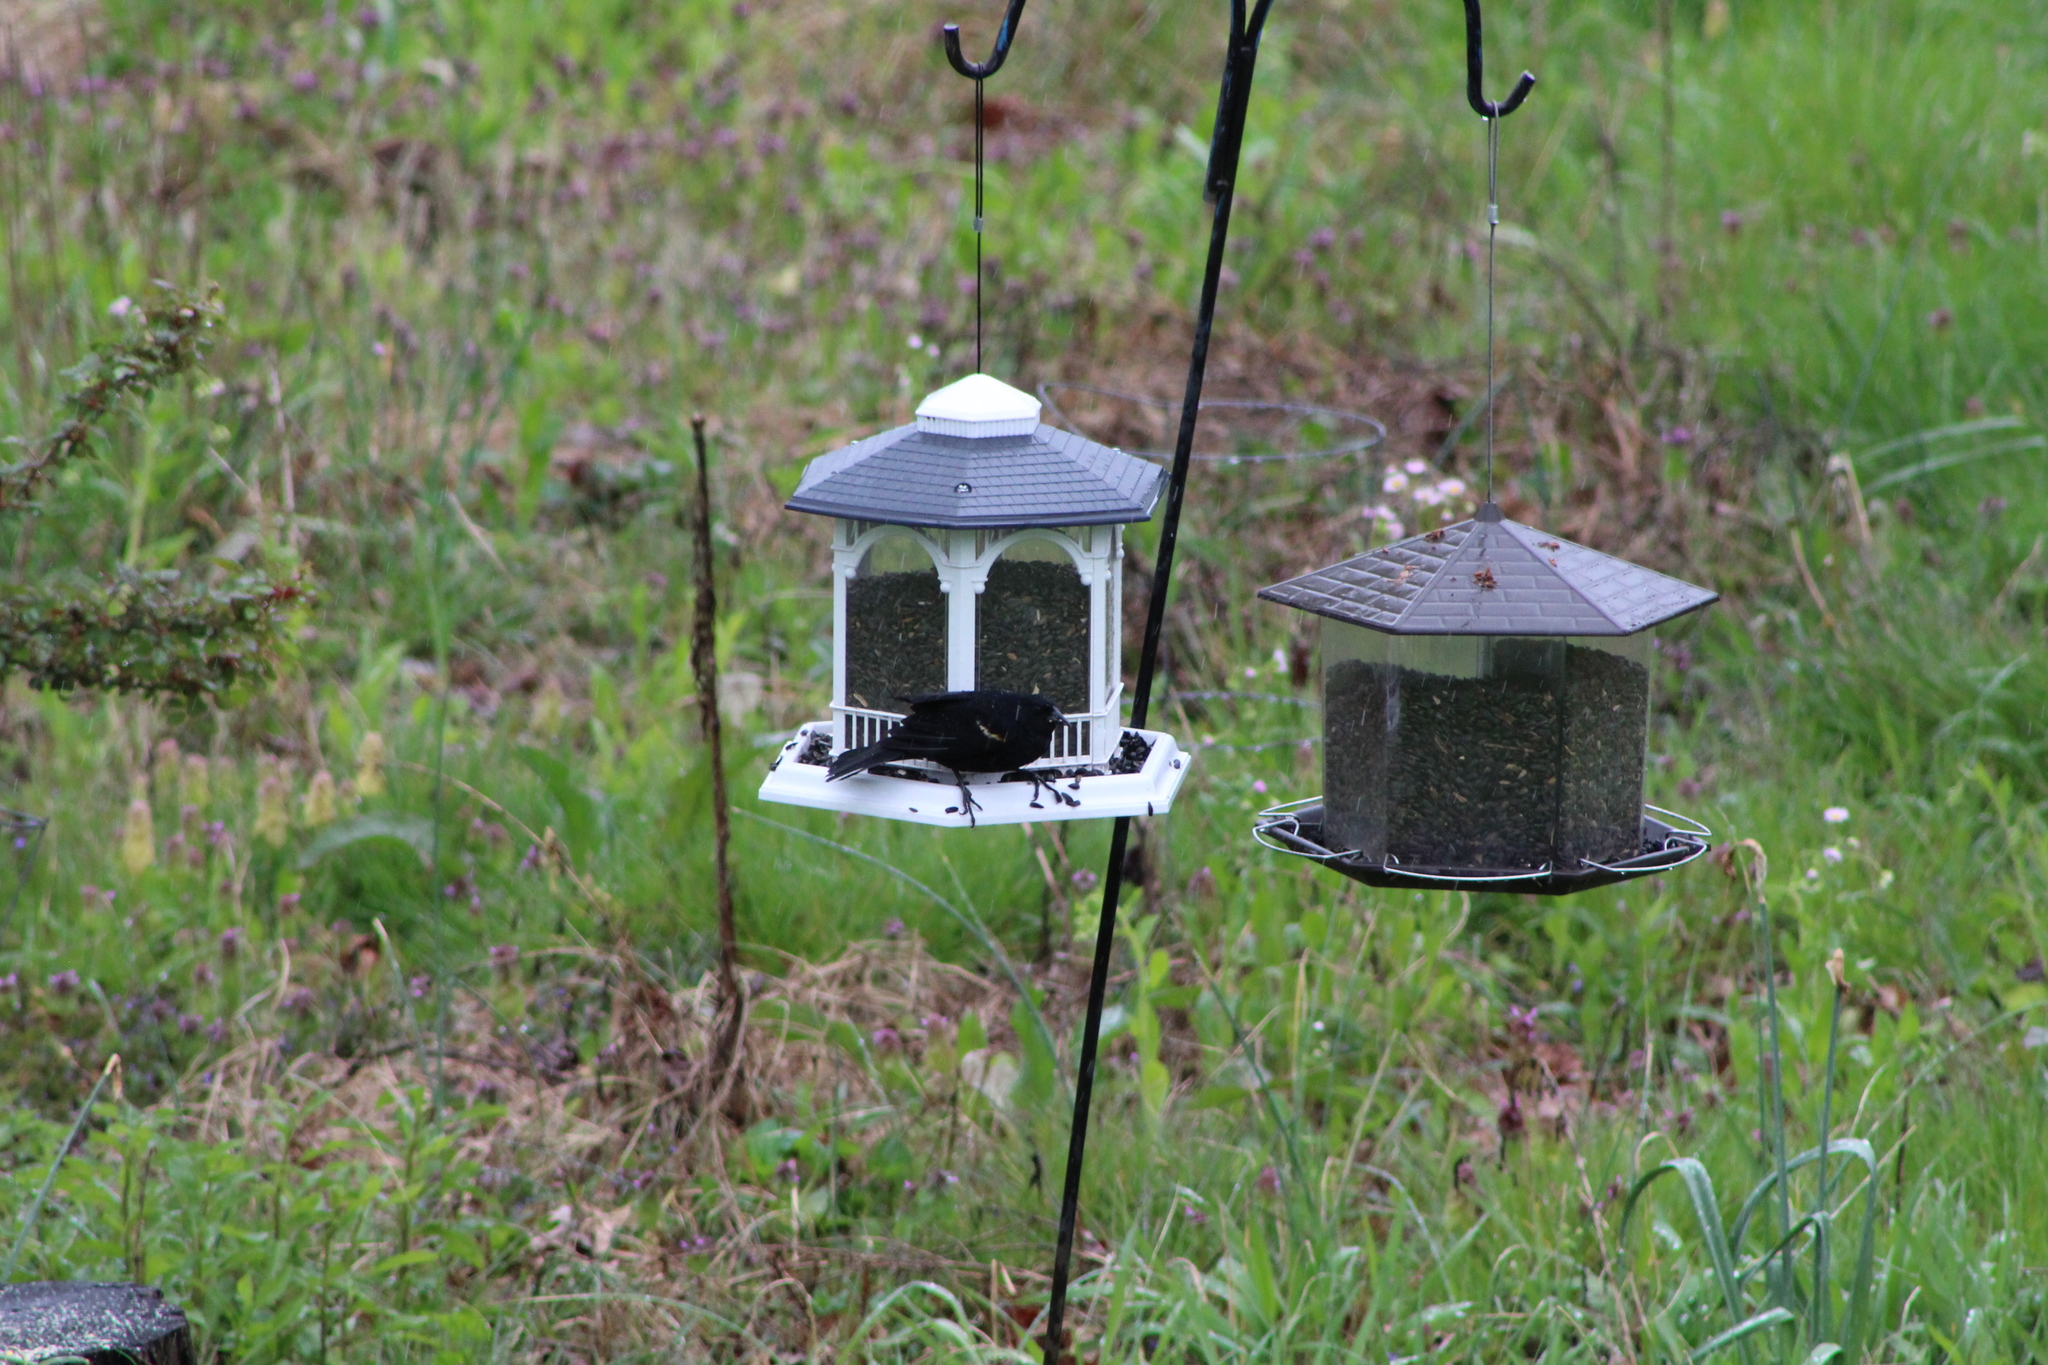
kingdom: Animalia
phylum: Chordata
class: Aves
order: Passeriformes
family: Icteridae
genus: Agelaius
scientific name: Agelaius phoeniceus
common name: Red-winged blackbird
